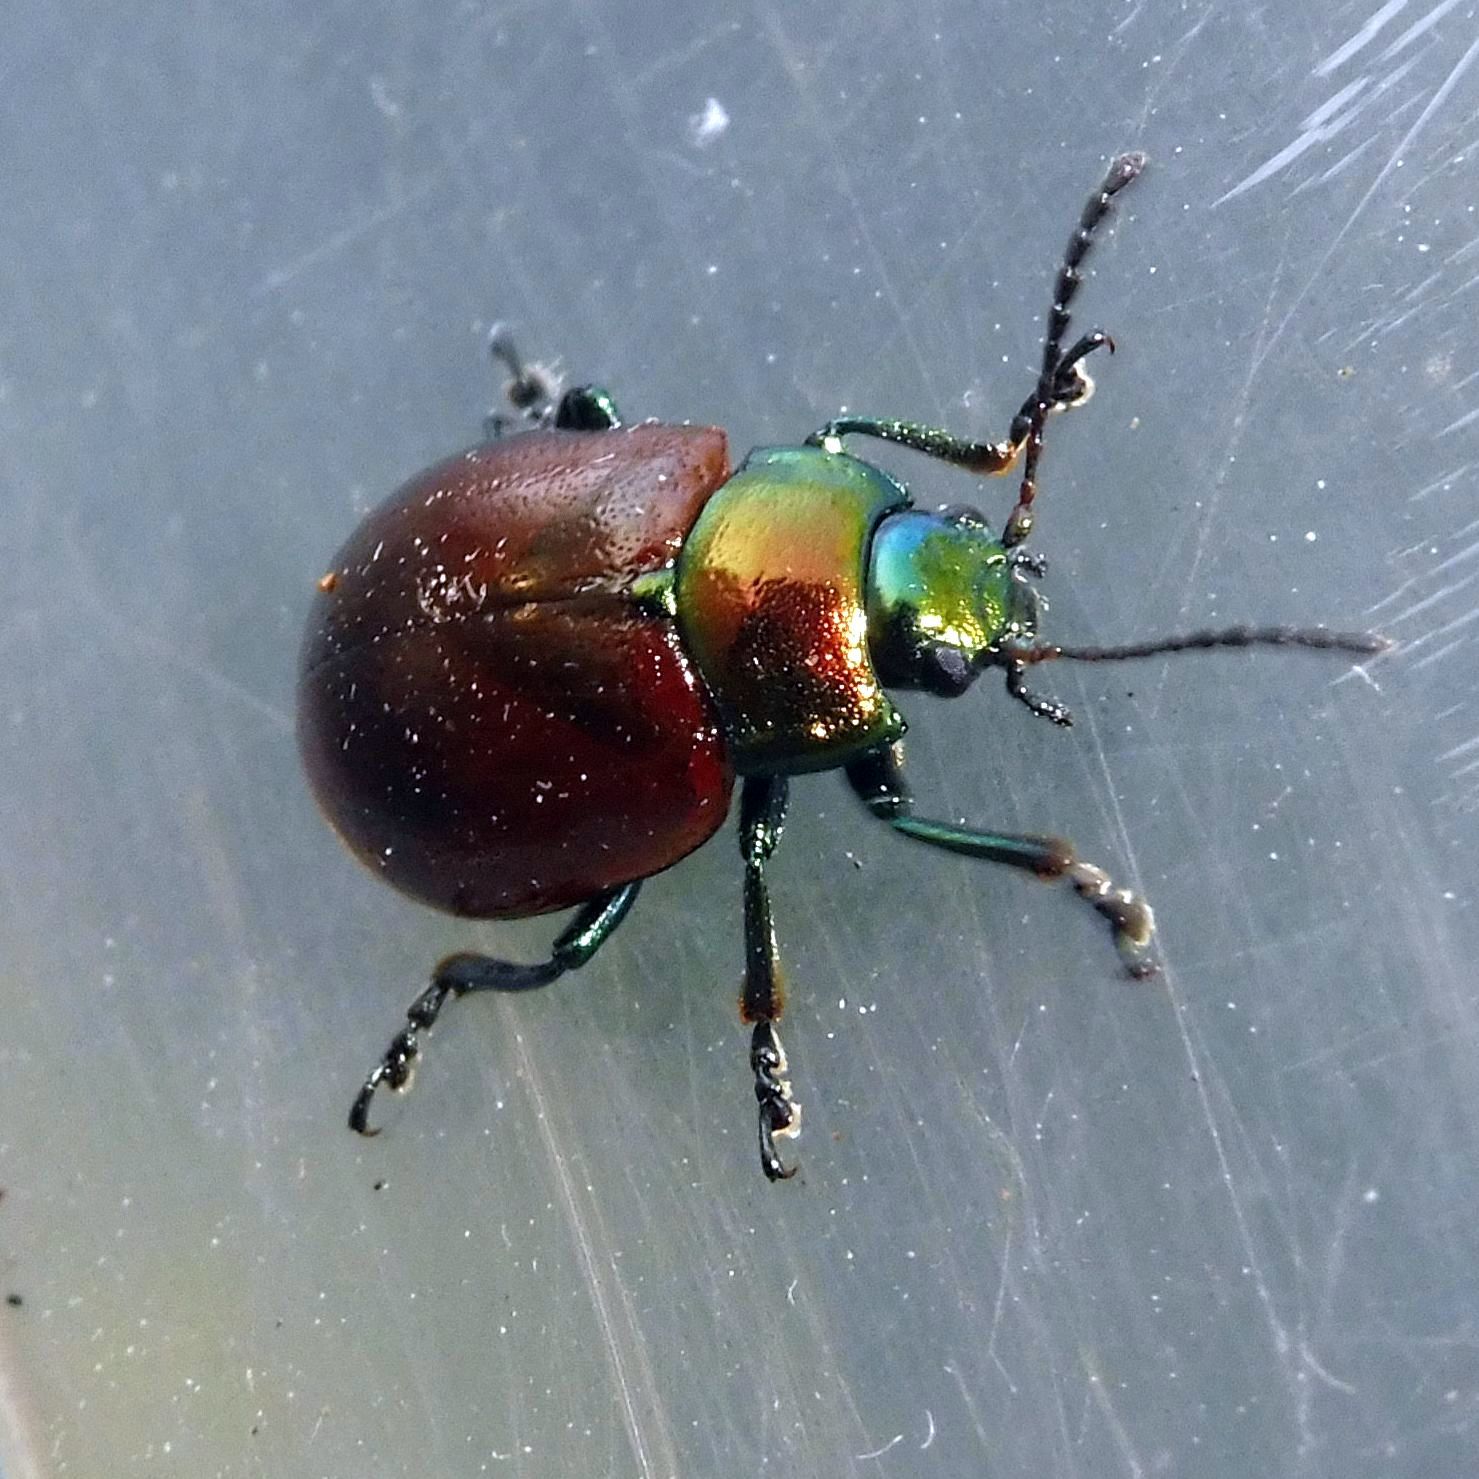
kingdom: Animalia
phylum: Arthropoda
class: Insecta
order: Coleoptera
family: Chrysomelidae
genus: Chrysomela
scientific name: Chrysomela polita
